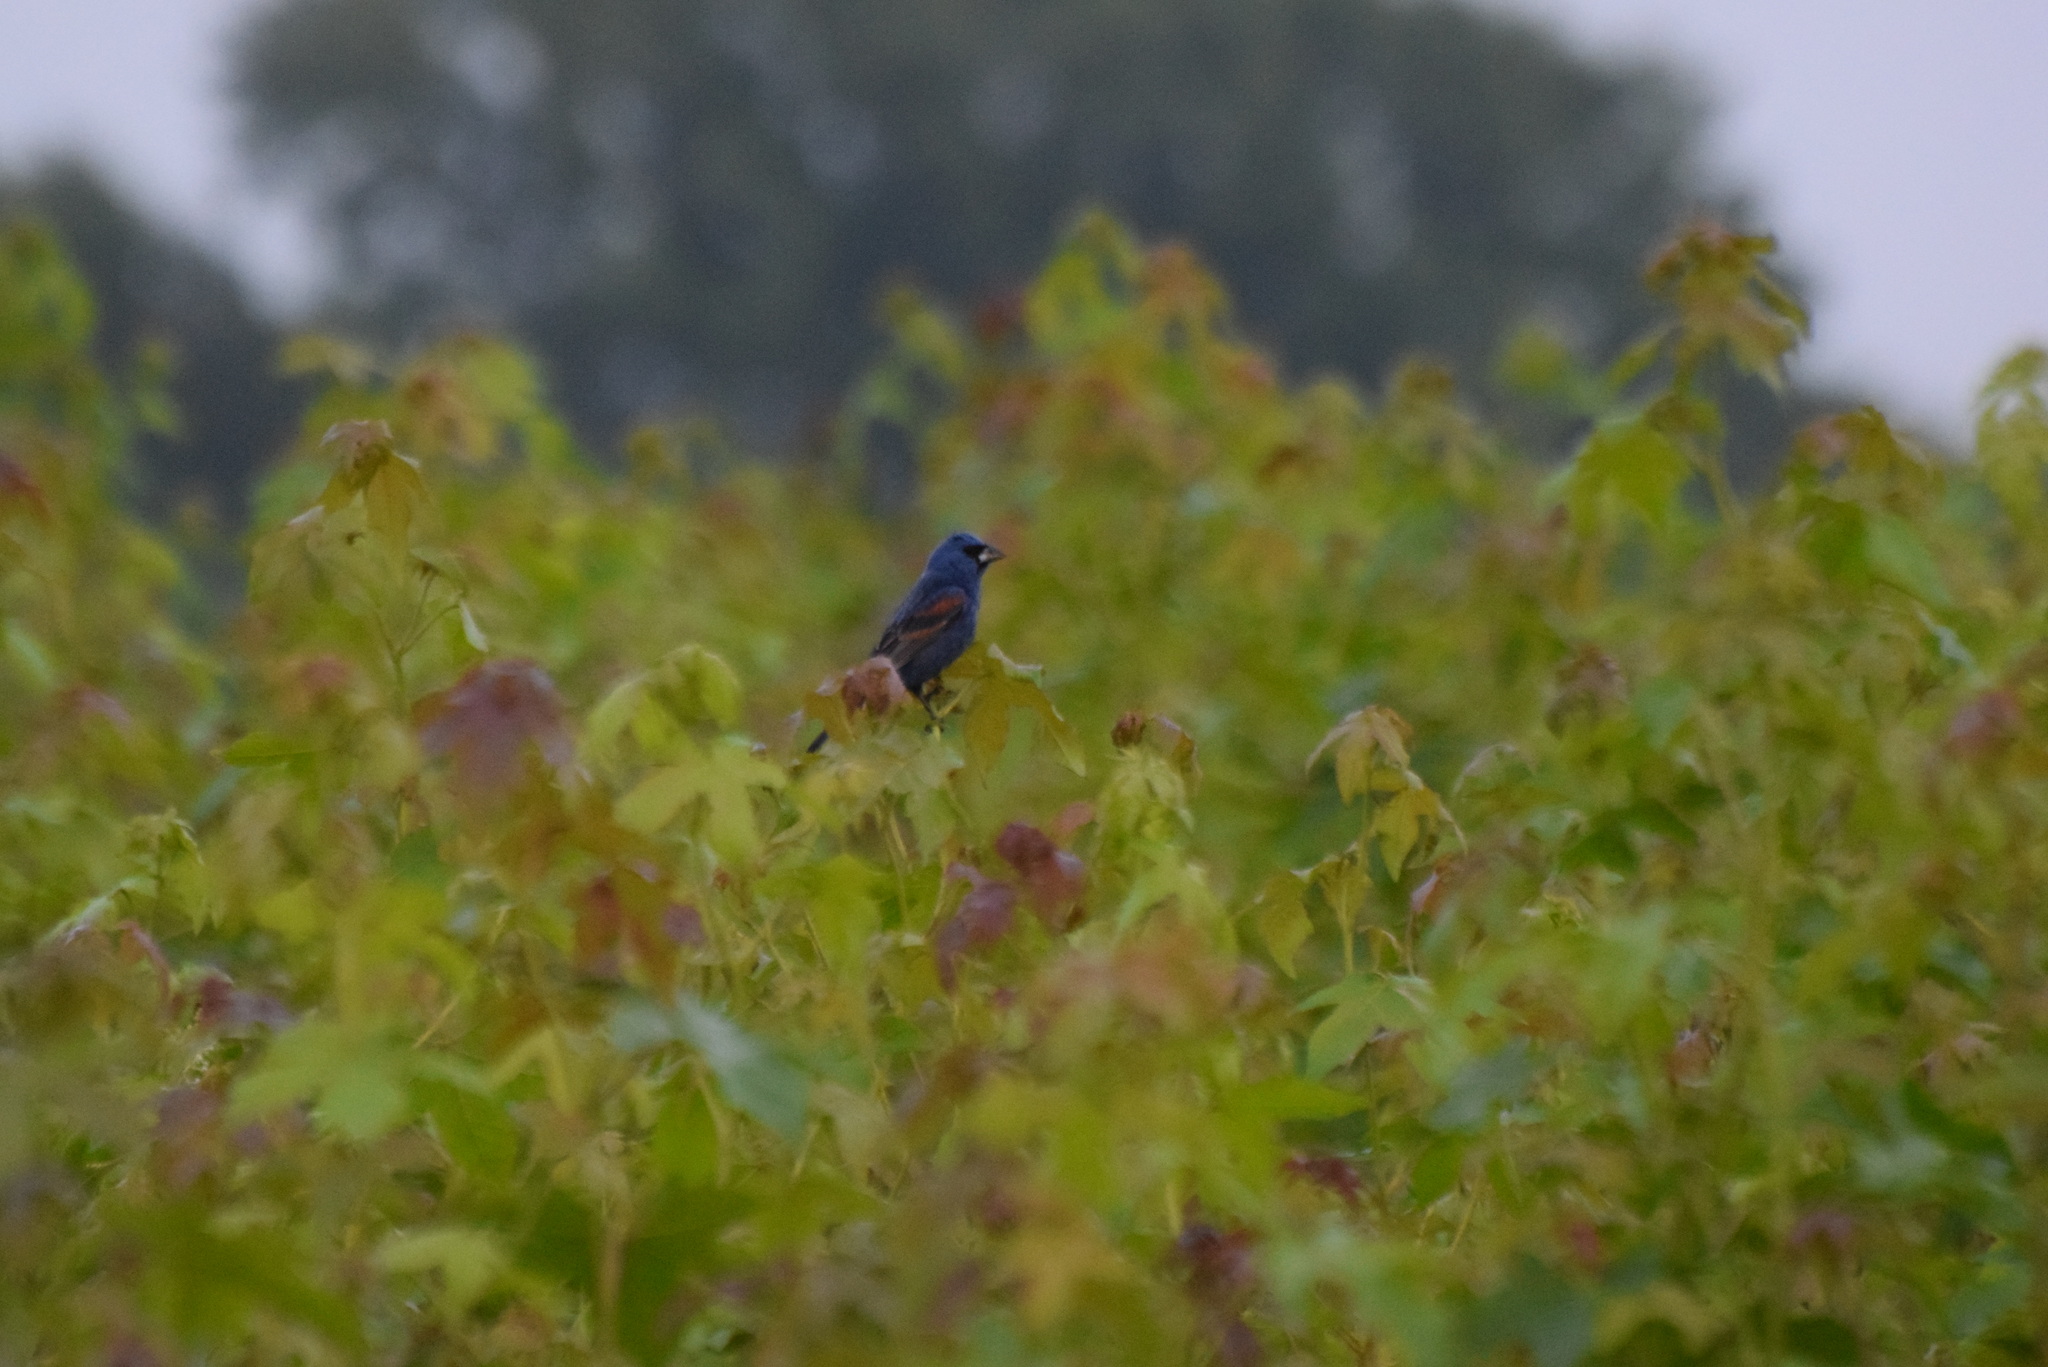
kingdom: Animalia
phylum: Chordata
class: Aves
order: Passeriformes
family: Cardinalidae
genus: Passerina
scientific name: Passerina caerulea
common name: Blue grosbeak
